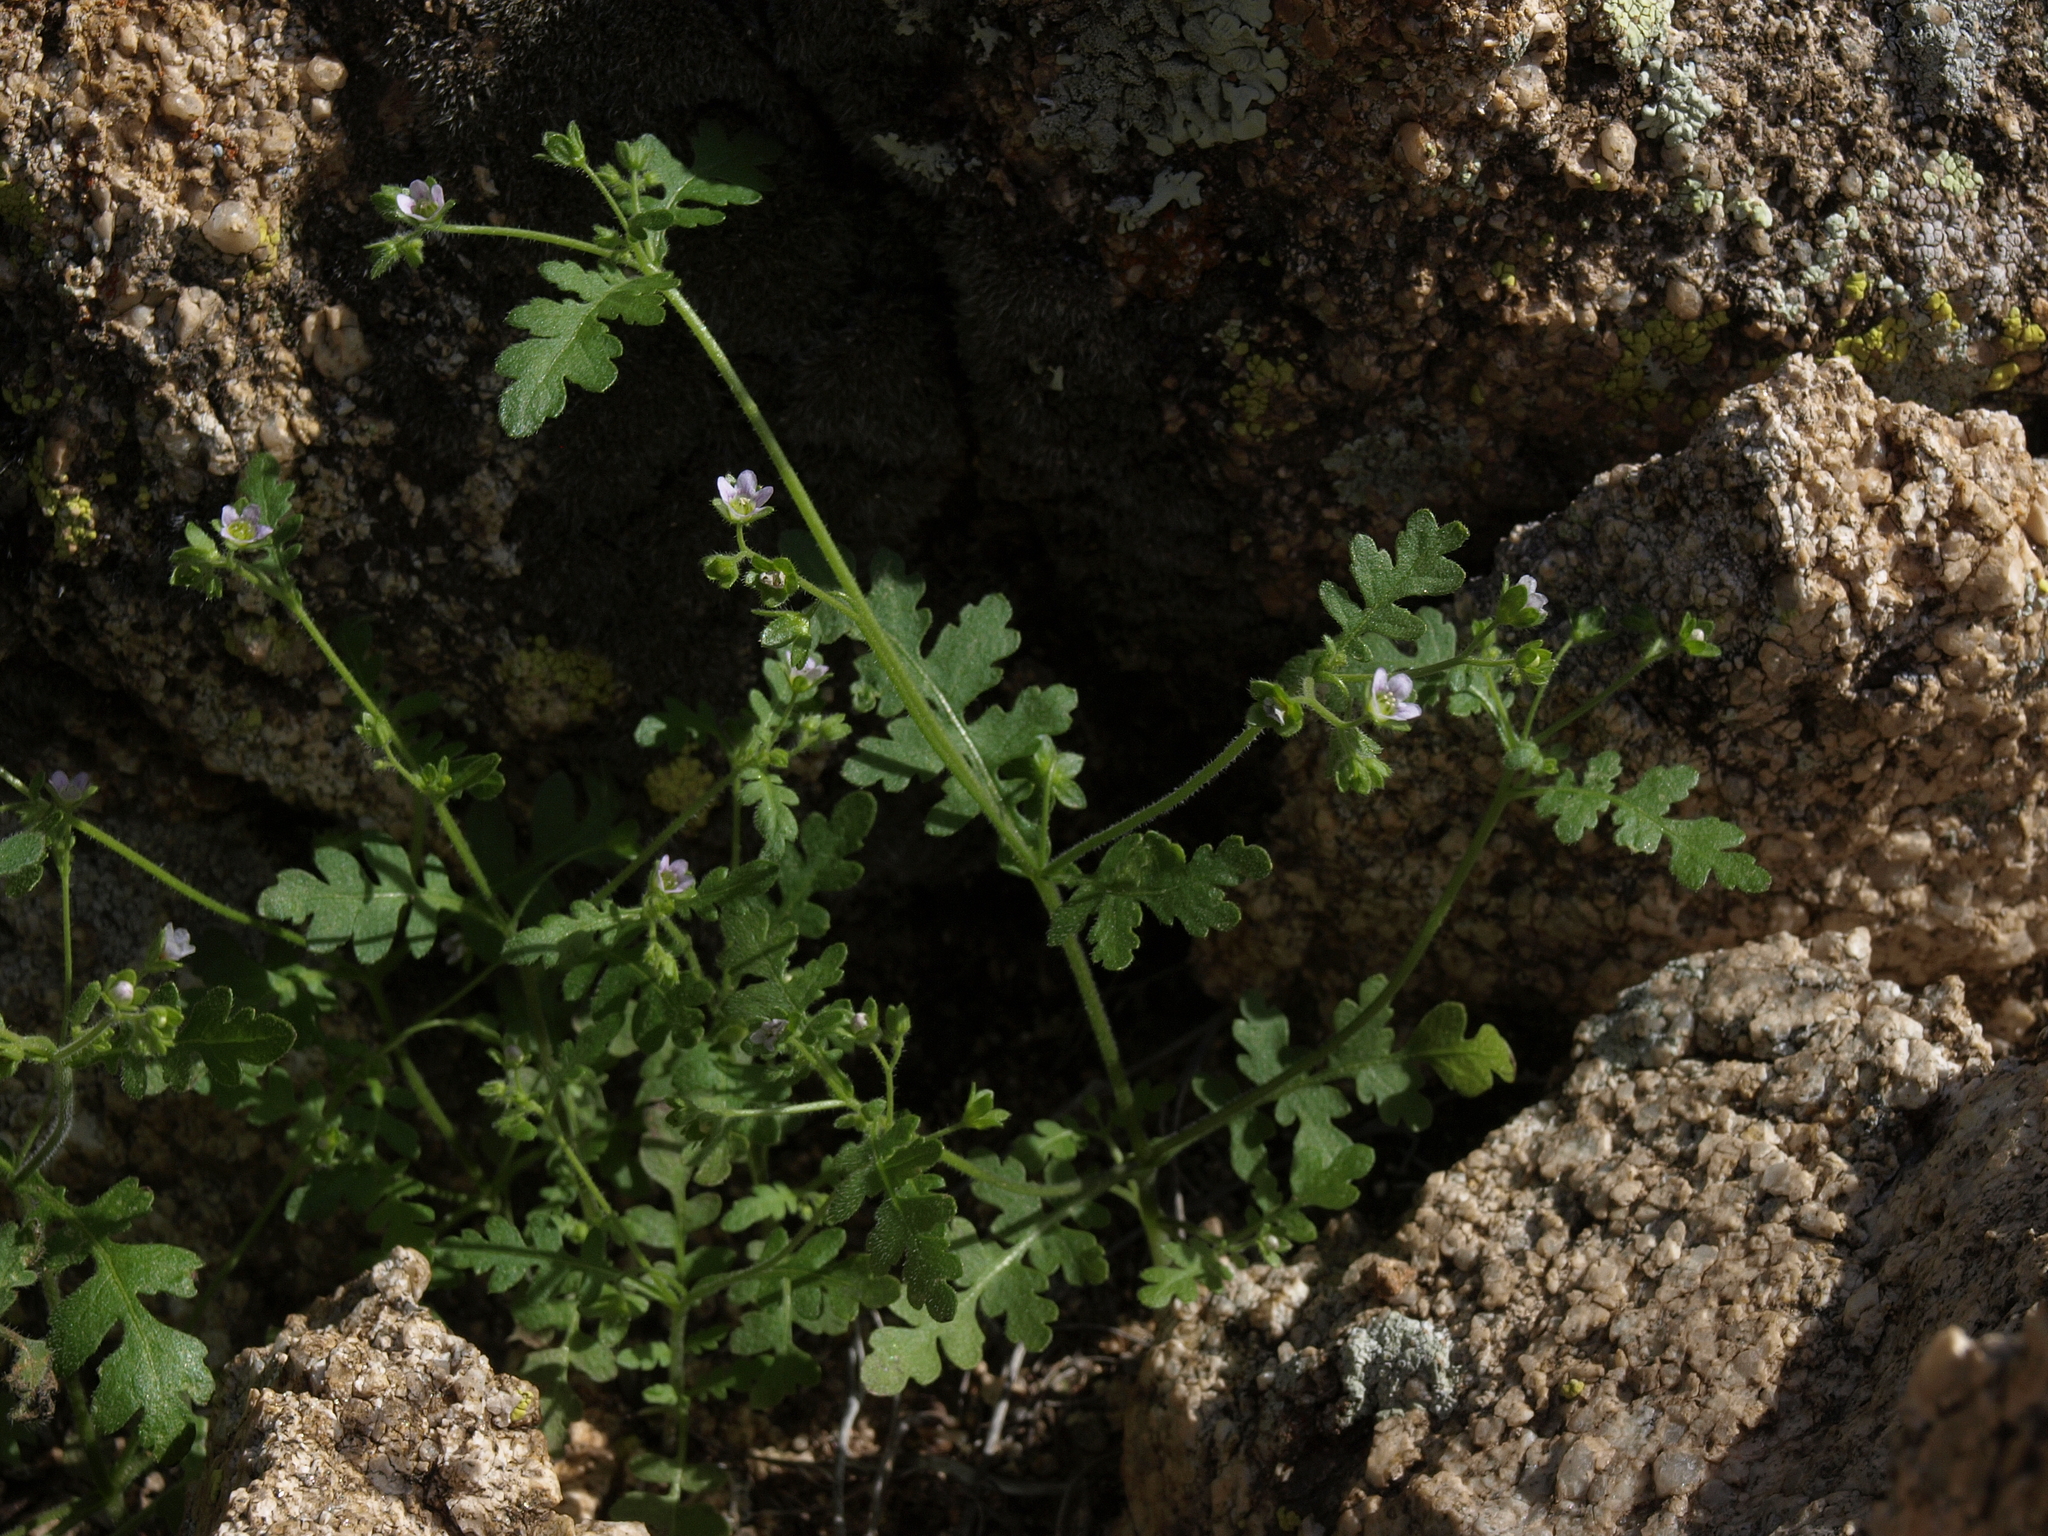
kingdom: Plantae
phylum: Tracheophyta
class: Magnoliopsida
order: Boraginales
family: Hydrophyllaceae
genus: Eucrypta
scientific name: Eucrypta chrysanthemifolia
